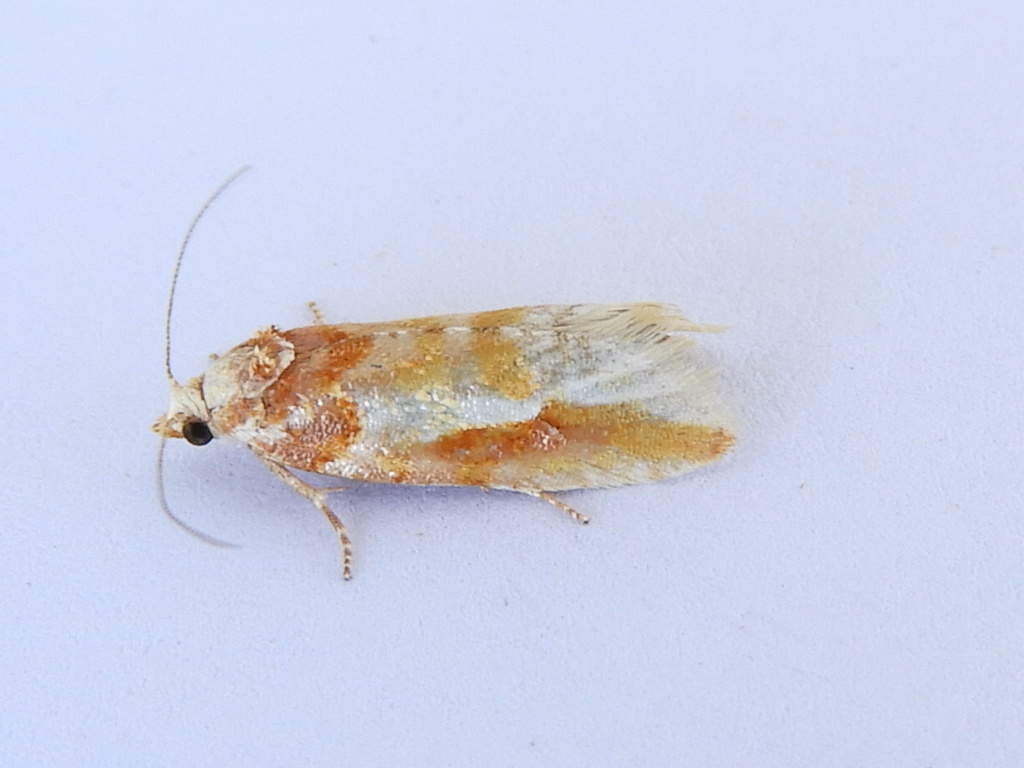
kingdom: Animalia
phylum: Arthropoda
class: Insecta
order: Lepidoptera
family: Tortricidae
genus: Eupinivora
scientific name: Eupinivora ponderosae
